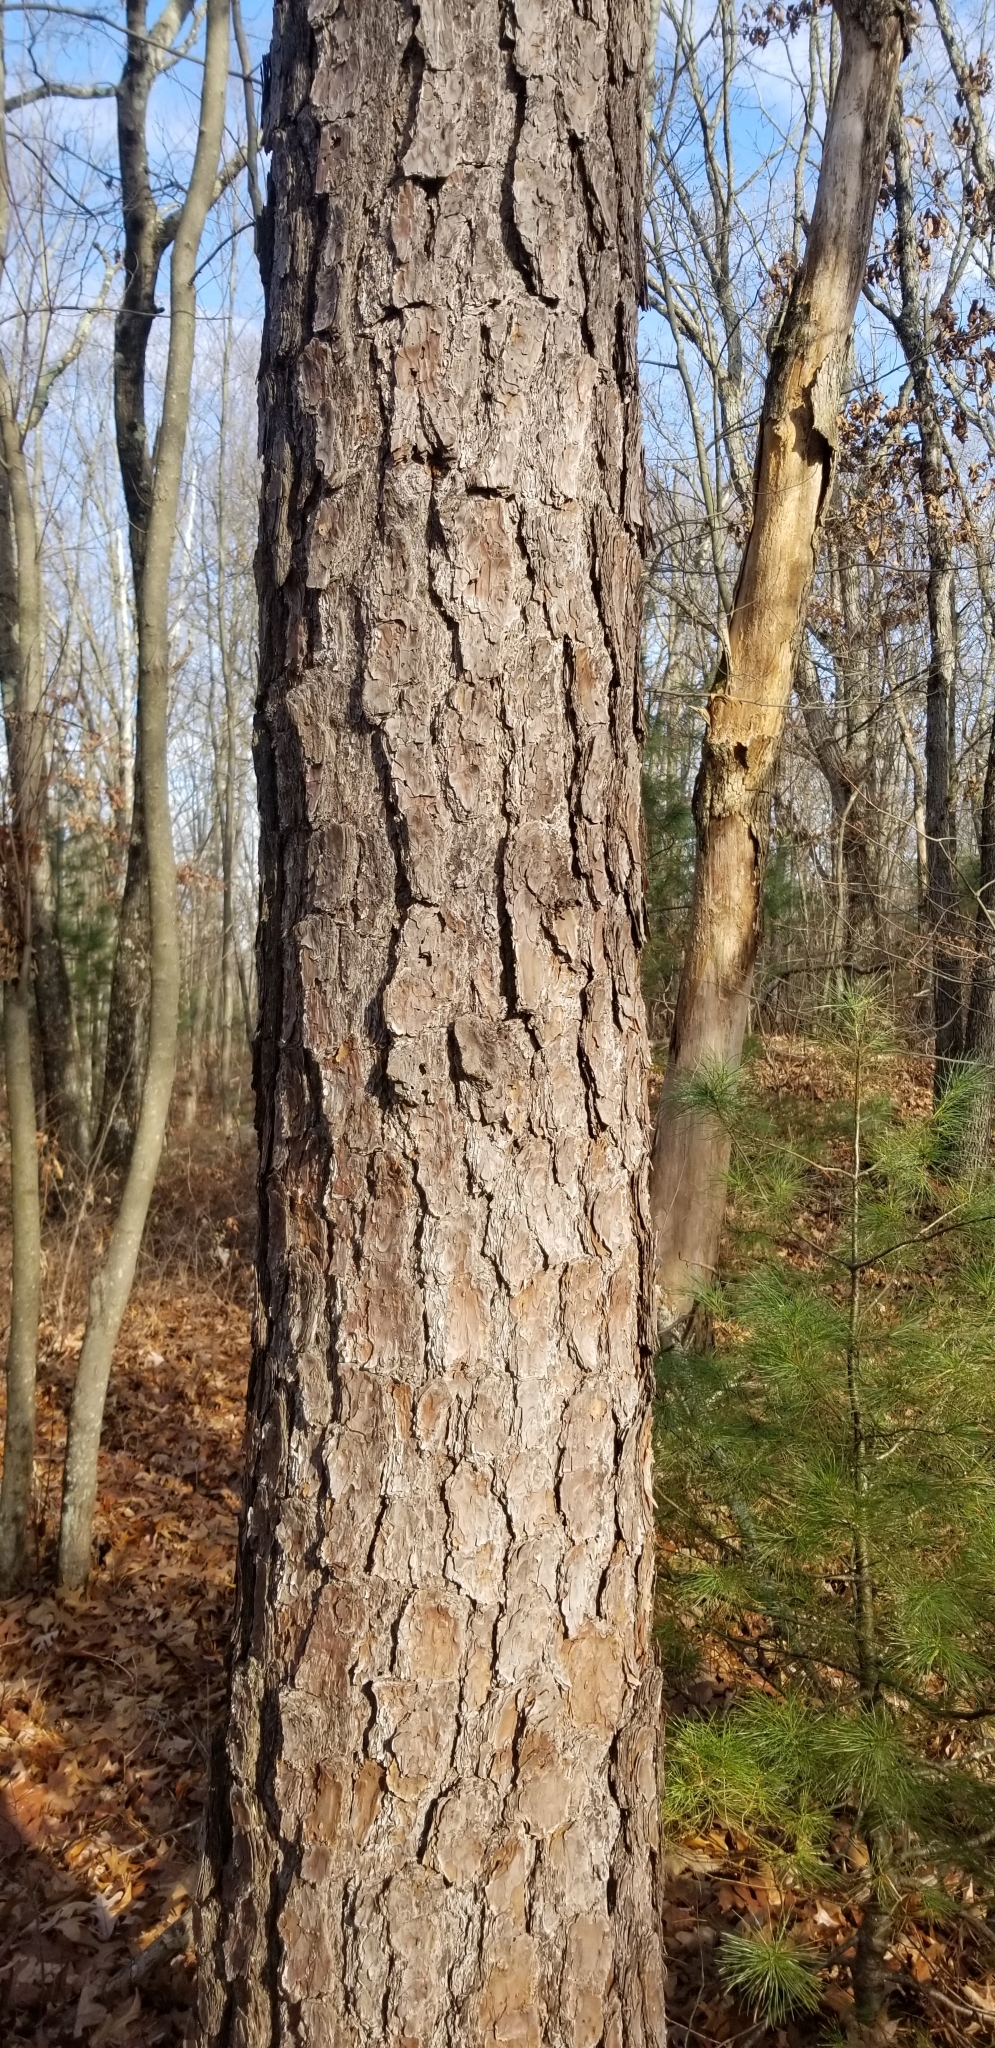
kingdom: Plantae
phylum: Tracheophyta
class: Pinopsida
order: Pinales
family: Pinaceae
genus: Pinus
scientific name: Pinus rigida
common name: Pitch pine
